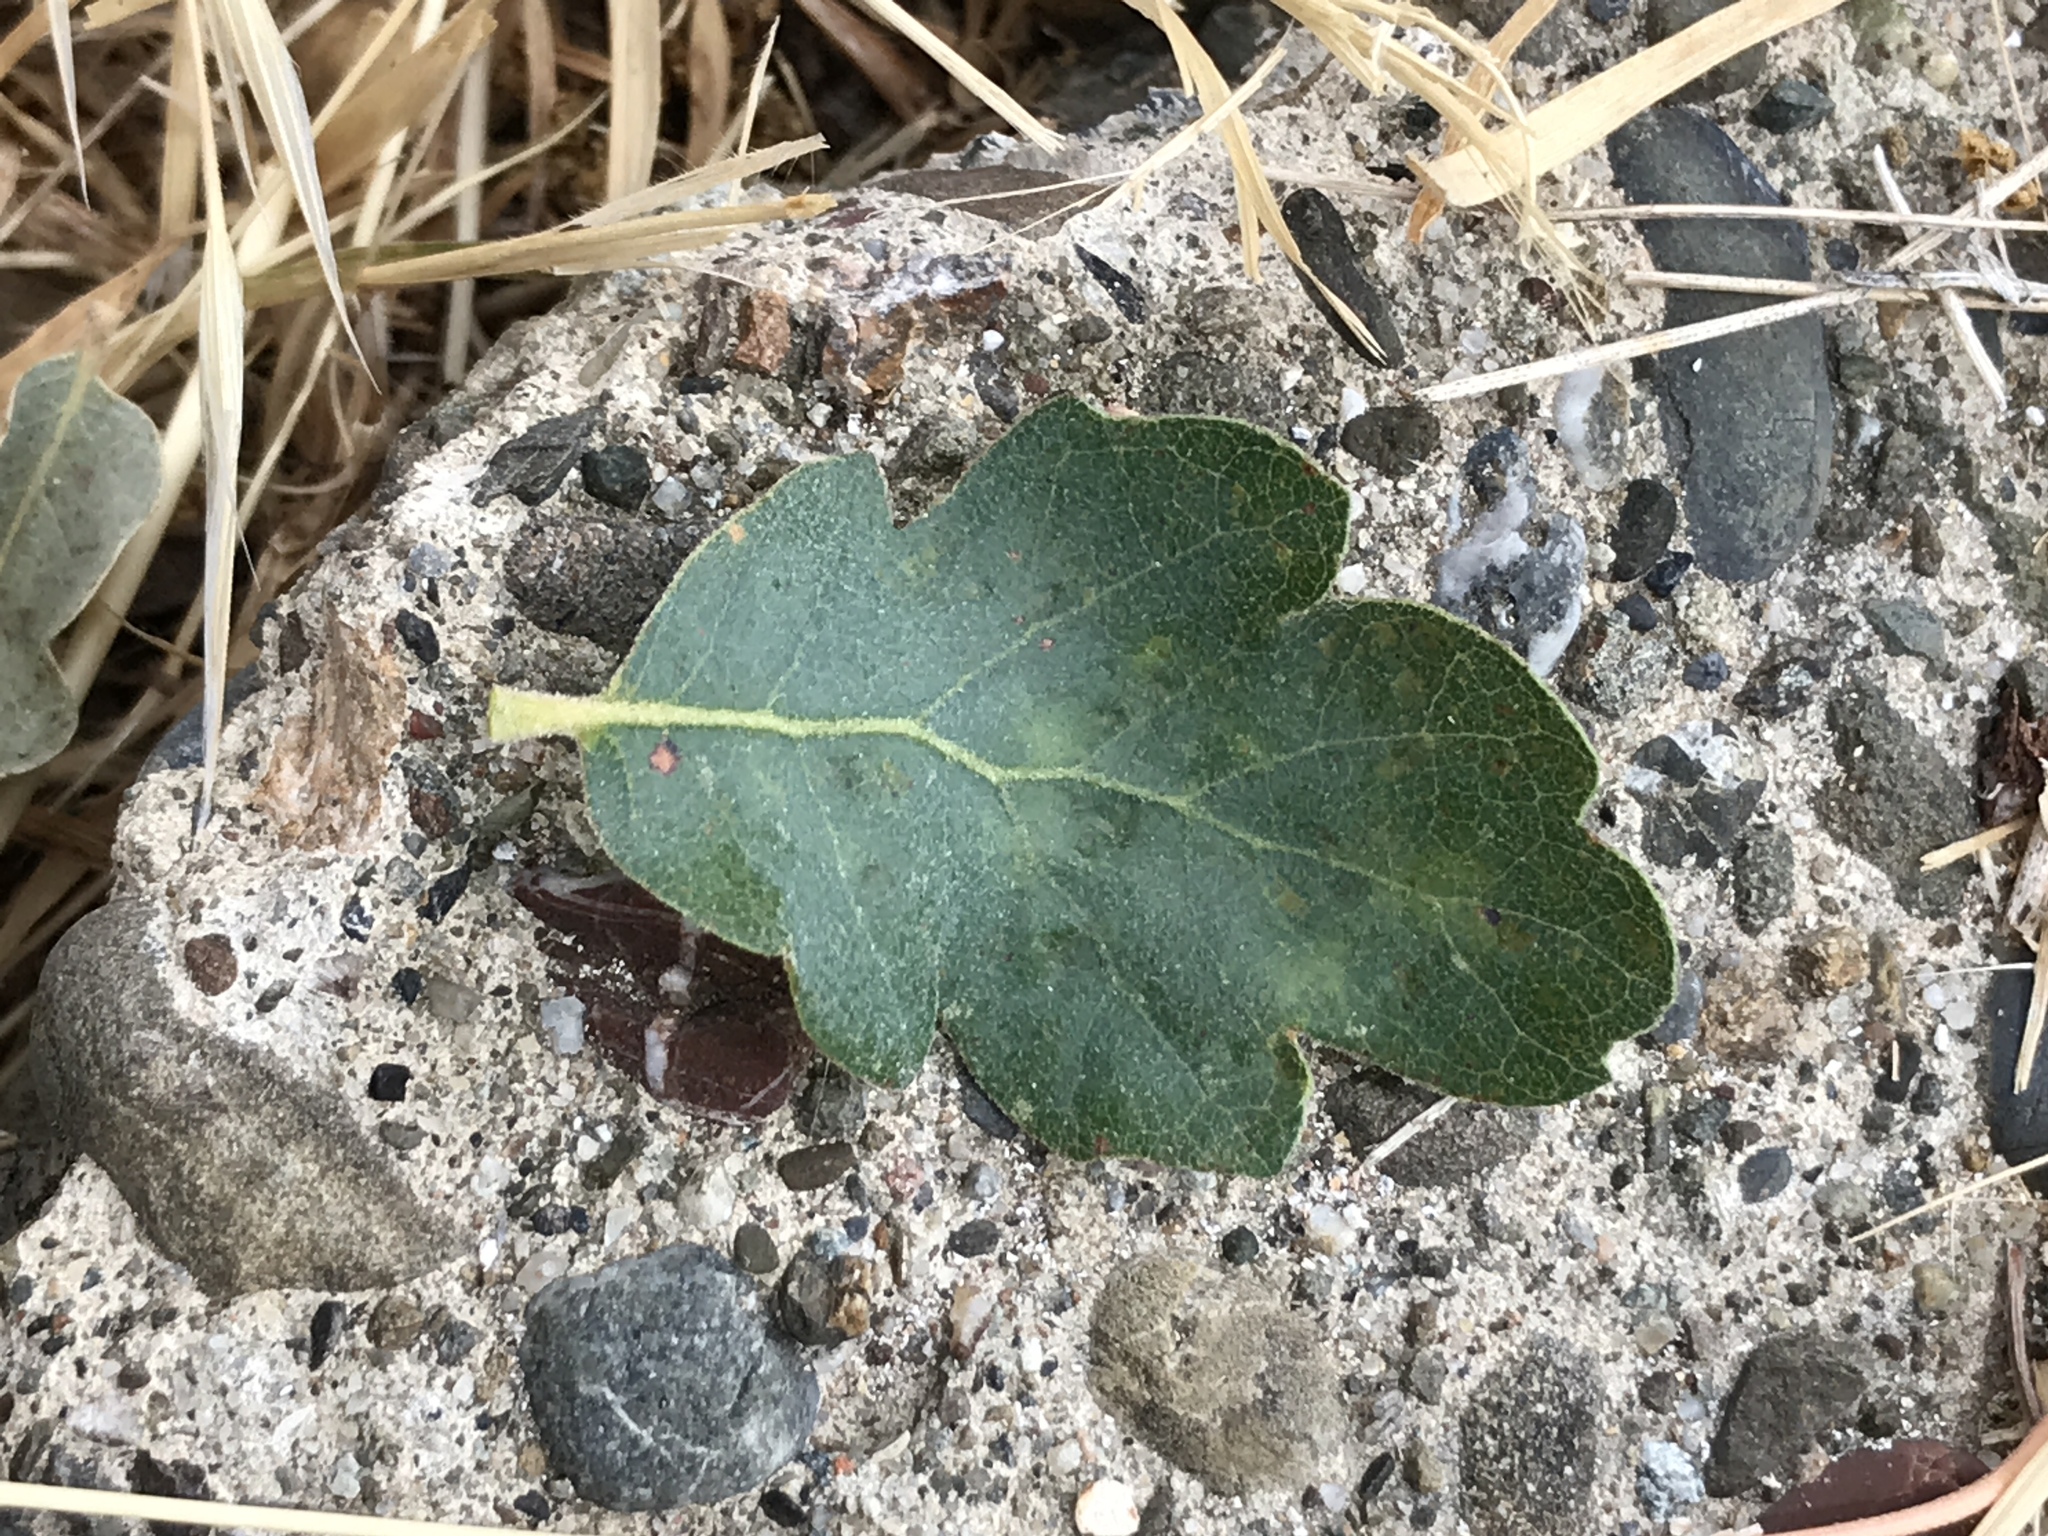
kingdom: Plantae
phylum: Tracheophyta
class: Magnoliopsida
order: Fagales
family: Fagaceae
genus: Quercus
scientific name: Quercus douglasii
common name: Blue oak
